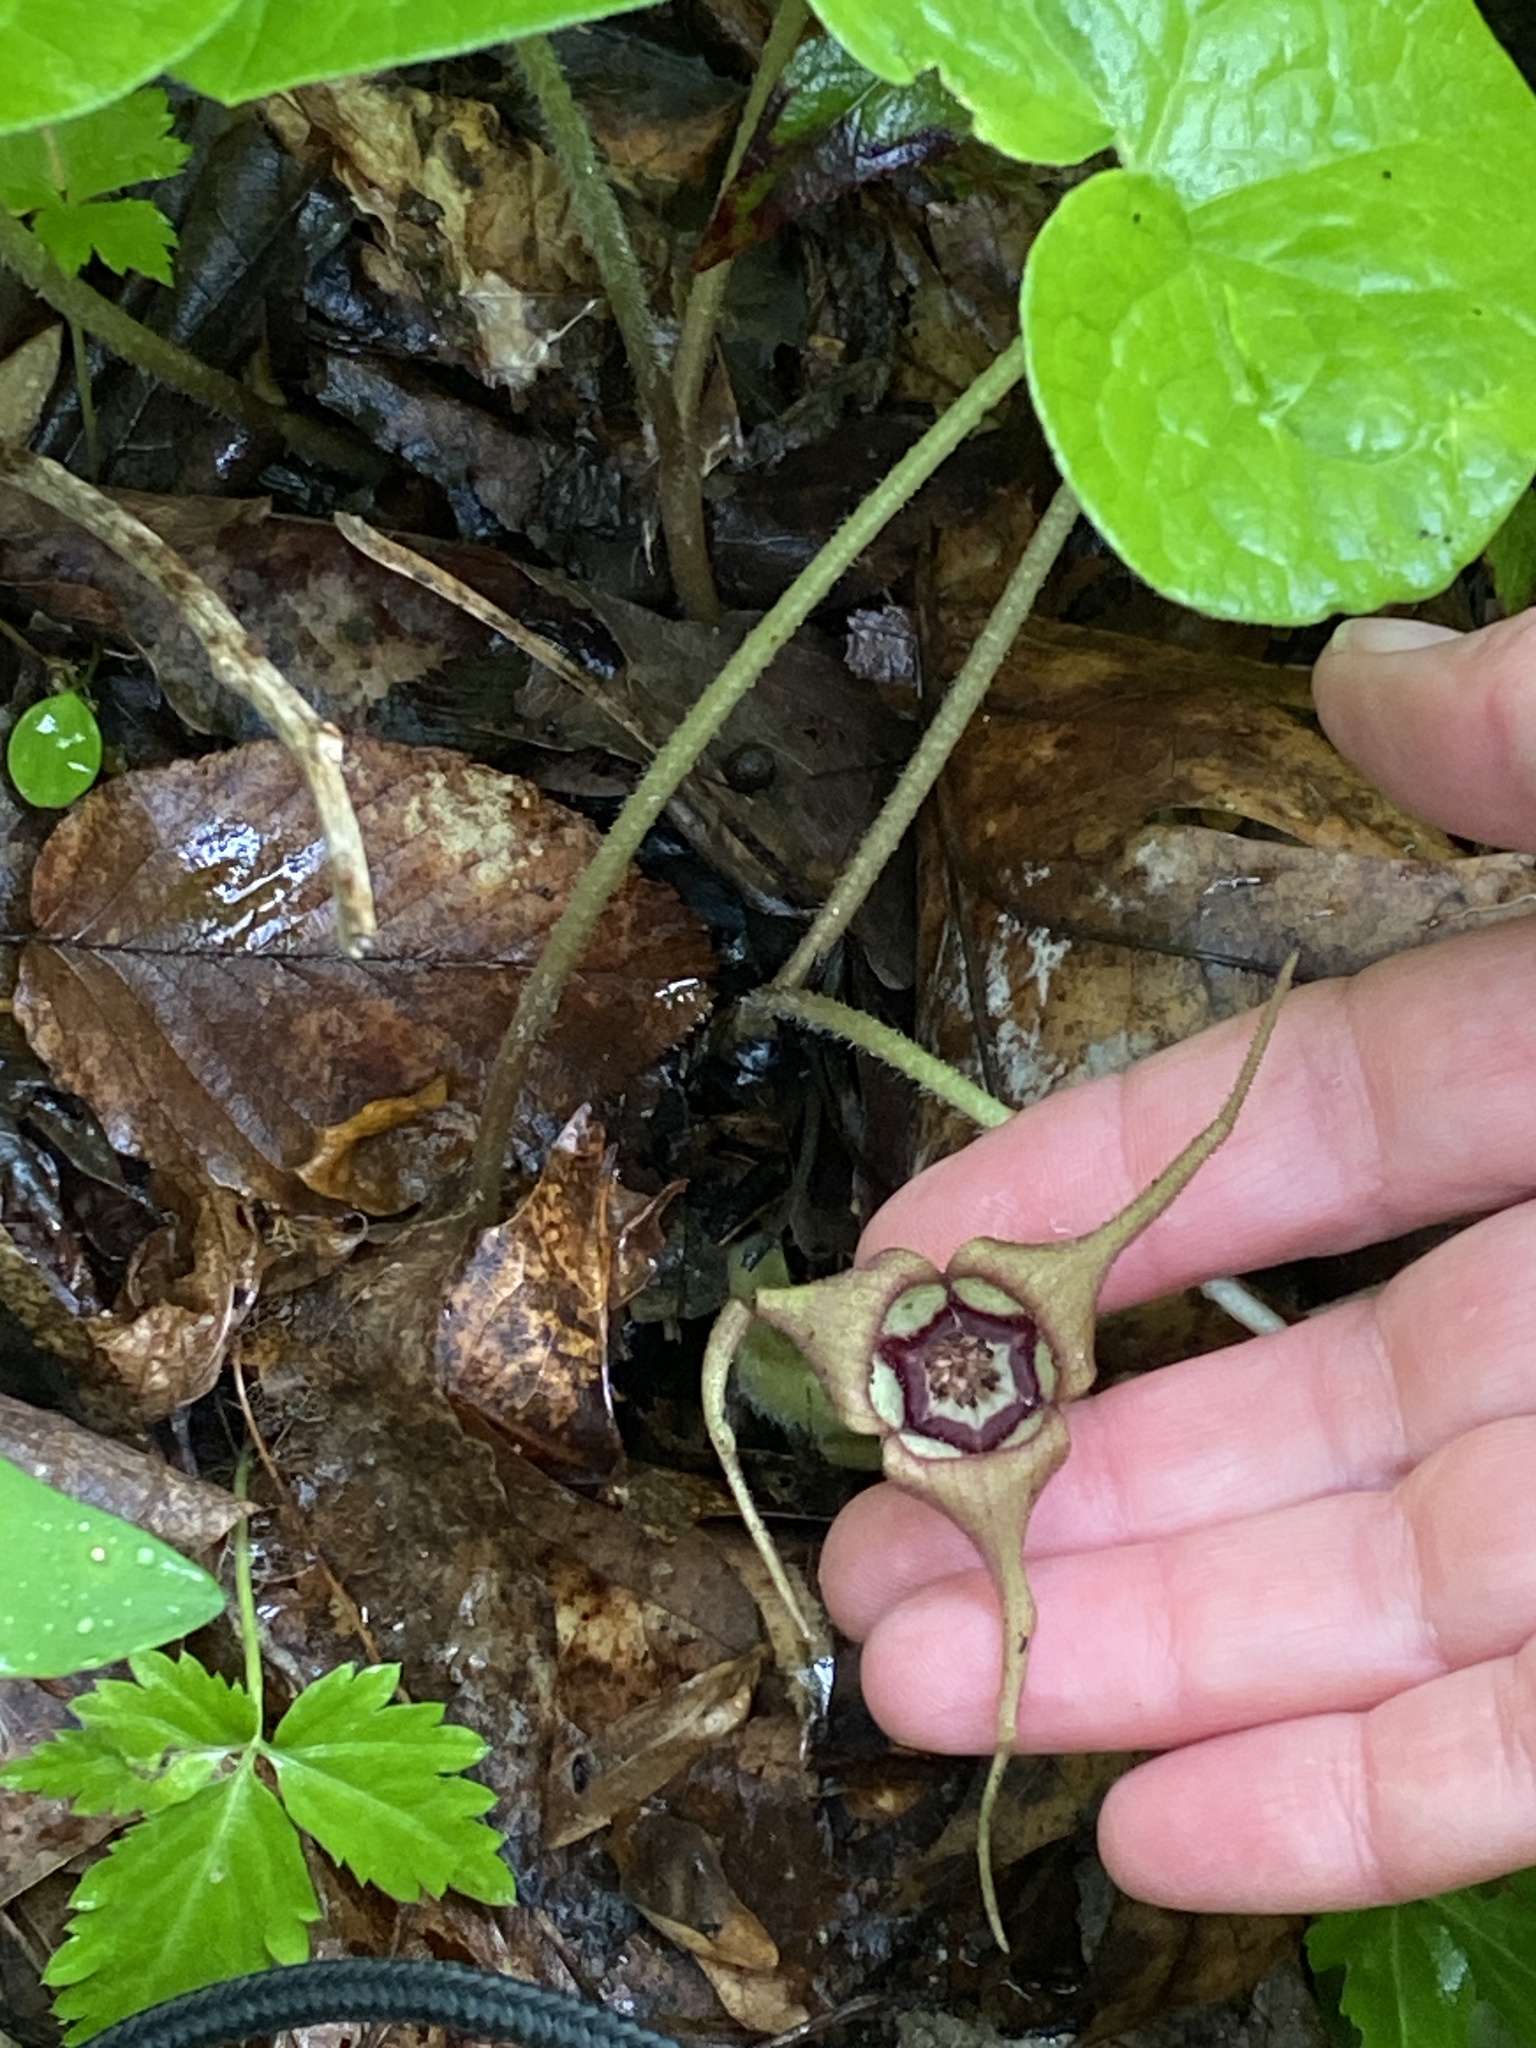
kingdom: Plantae
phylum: Tracheophyta
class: Magnoliopsida
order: Piperales
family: Aristolochiaceae
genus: Asarum
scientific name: Asarum canadense
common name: Wild ginger
